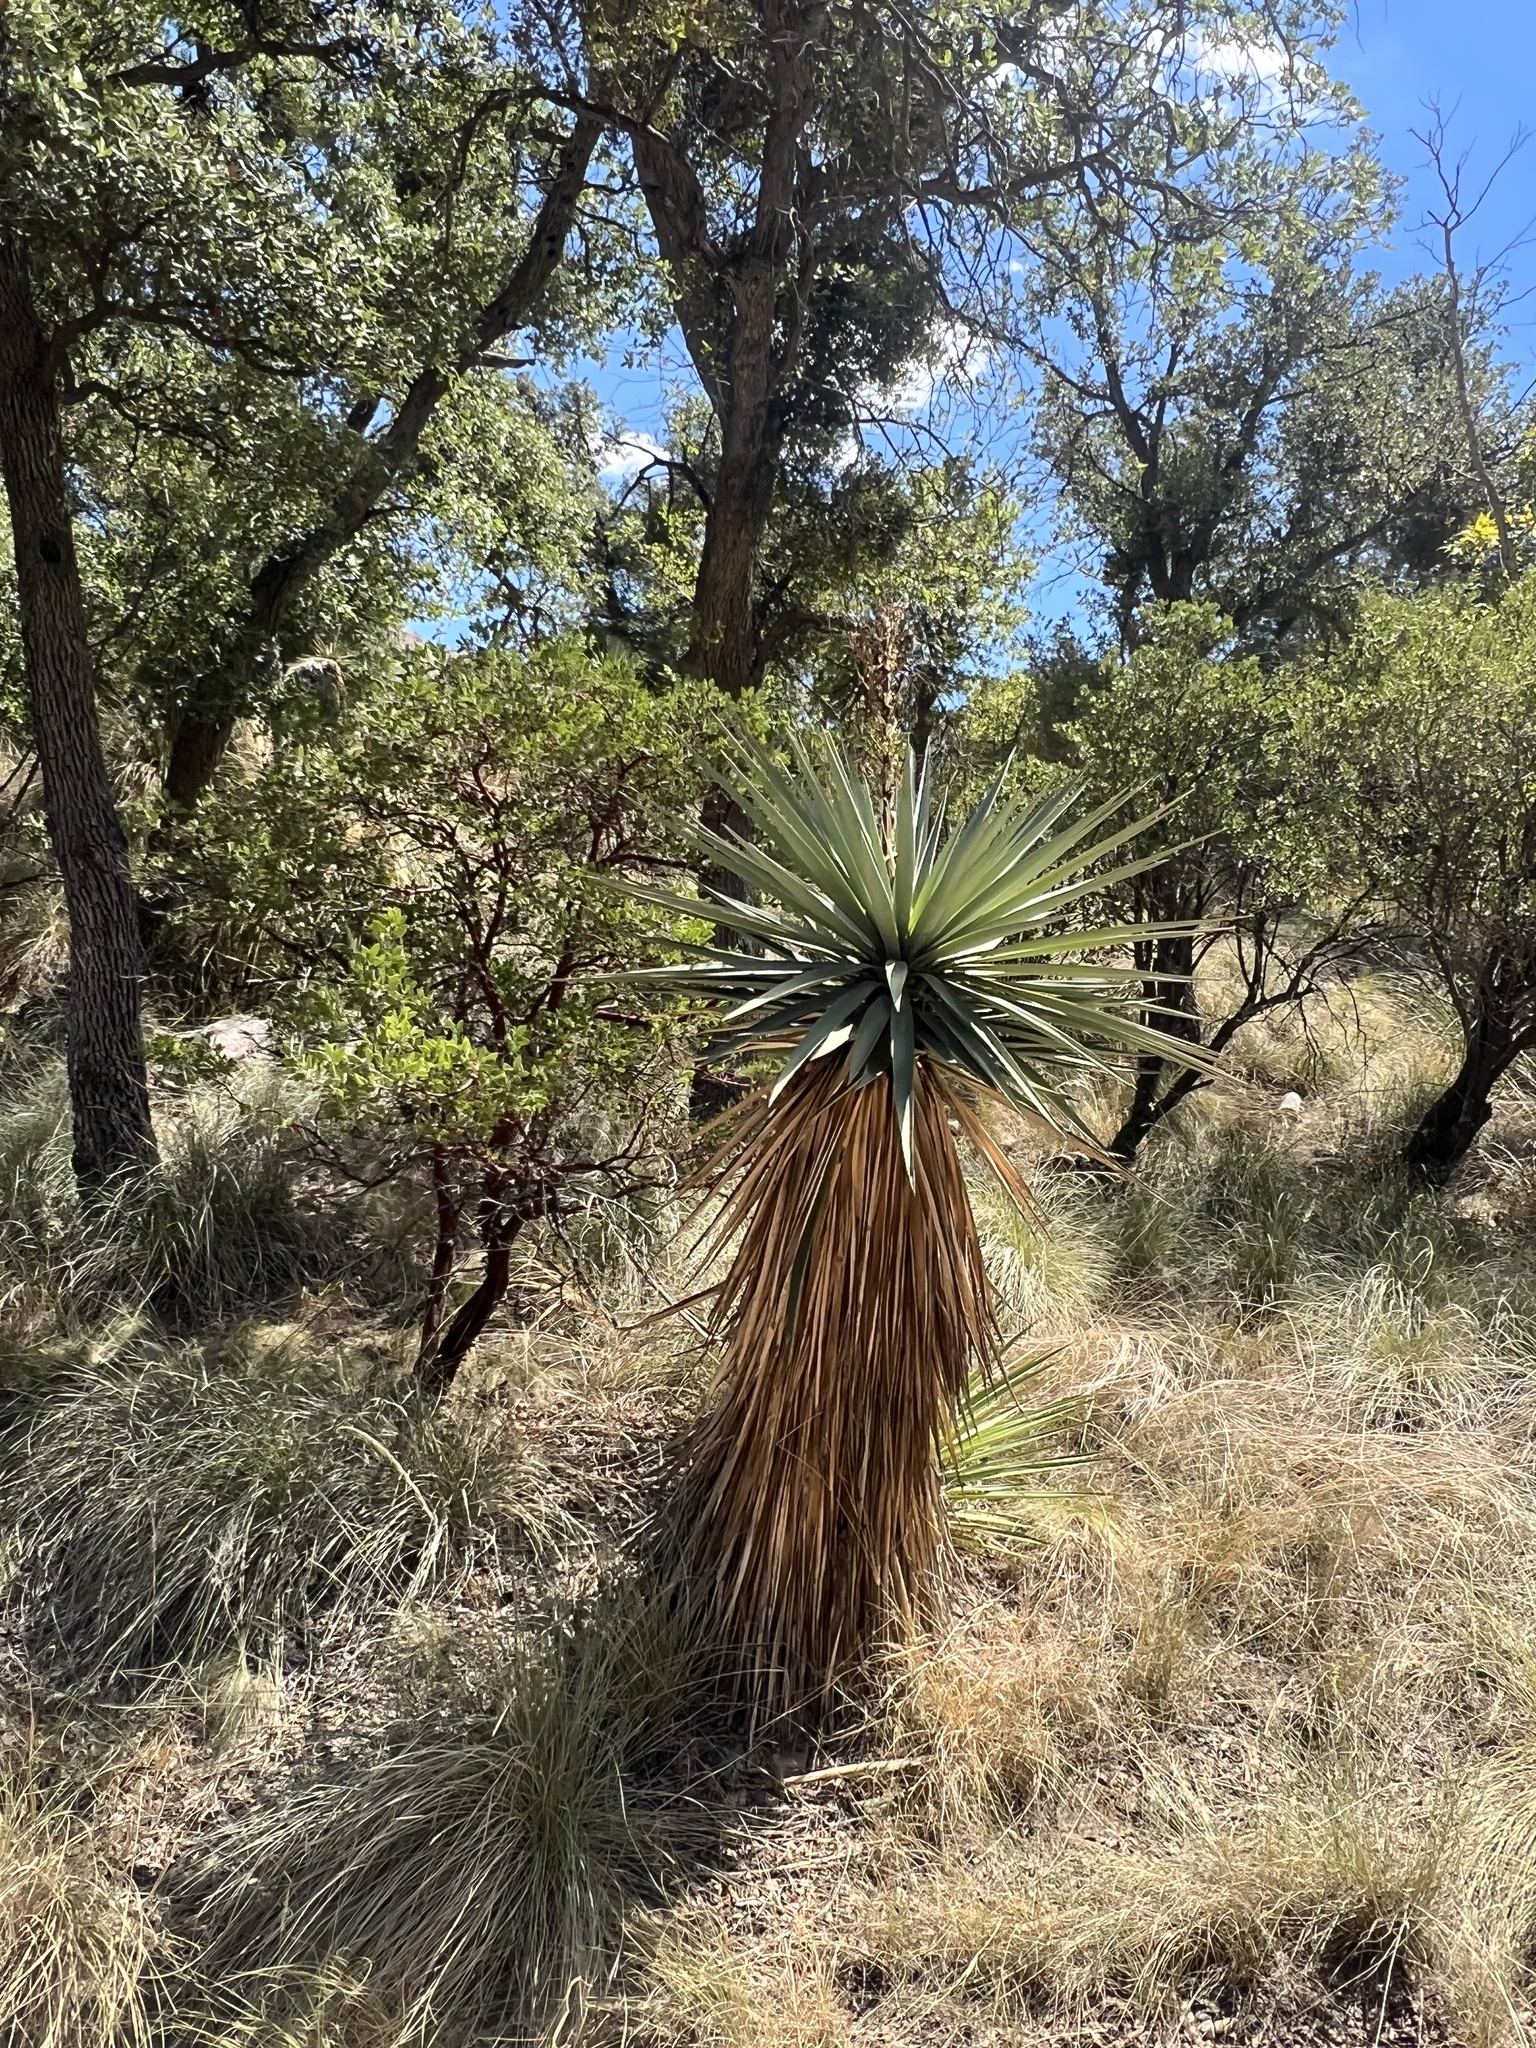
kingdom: Plantae
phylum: Tracheophyta
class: Liliopsida
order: Asparagales
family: Asparagaceae
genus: Yucca
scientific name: Yucca schottii
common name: Hoary yucca
